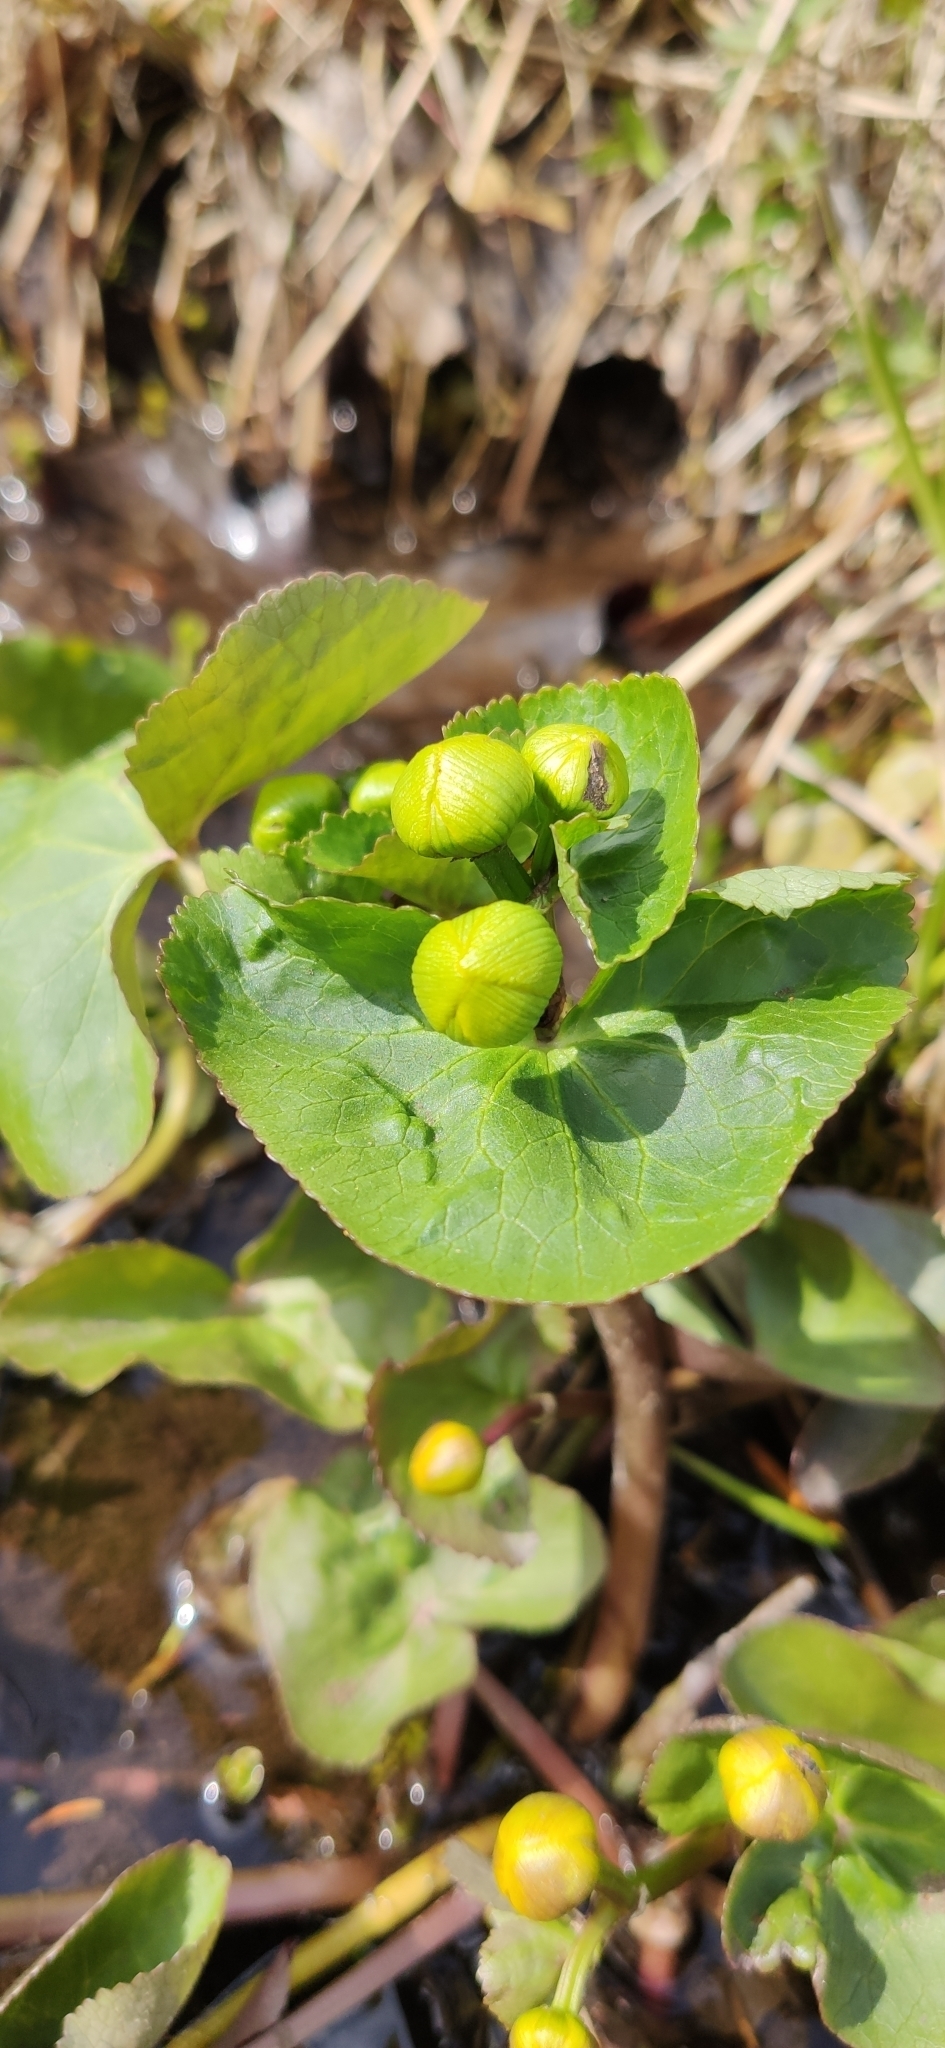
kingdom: Plantae
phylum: Tracheophyta
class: Magnoliopsida
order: Ranunculales
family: Ranunculaceae
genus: Caltha
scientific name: Caltha palustris
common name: Marsh marigold
